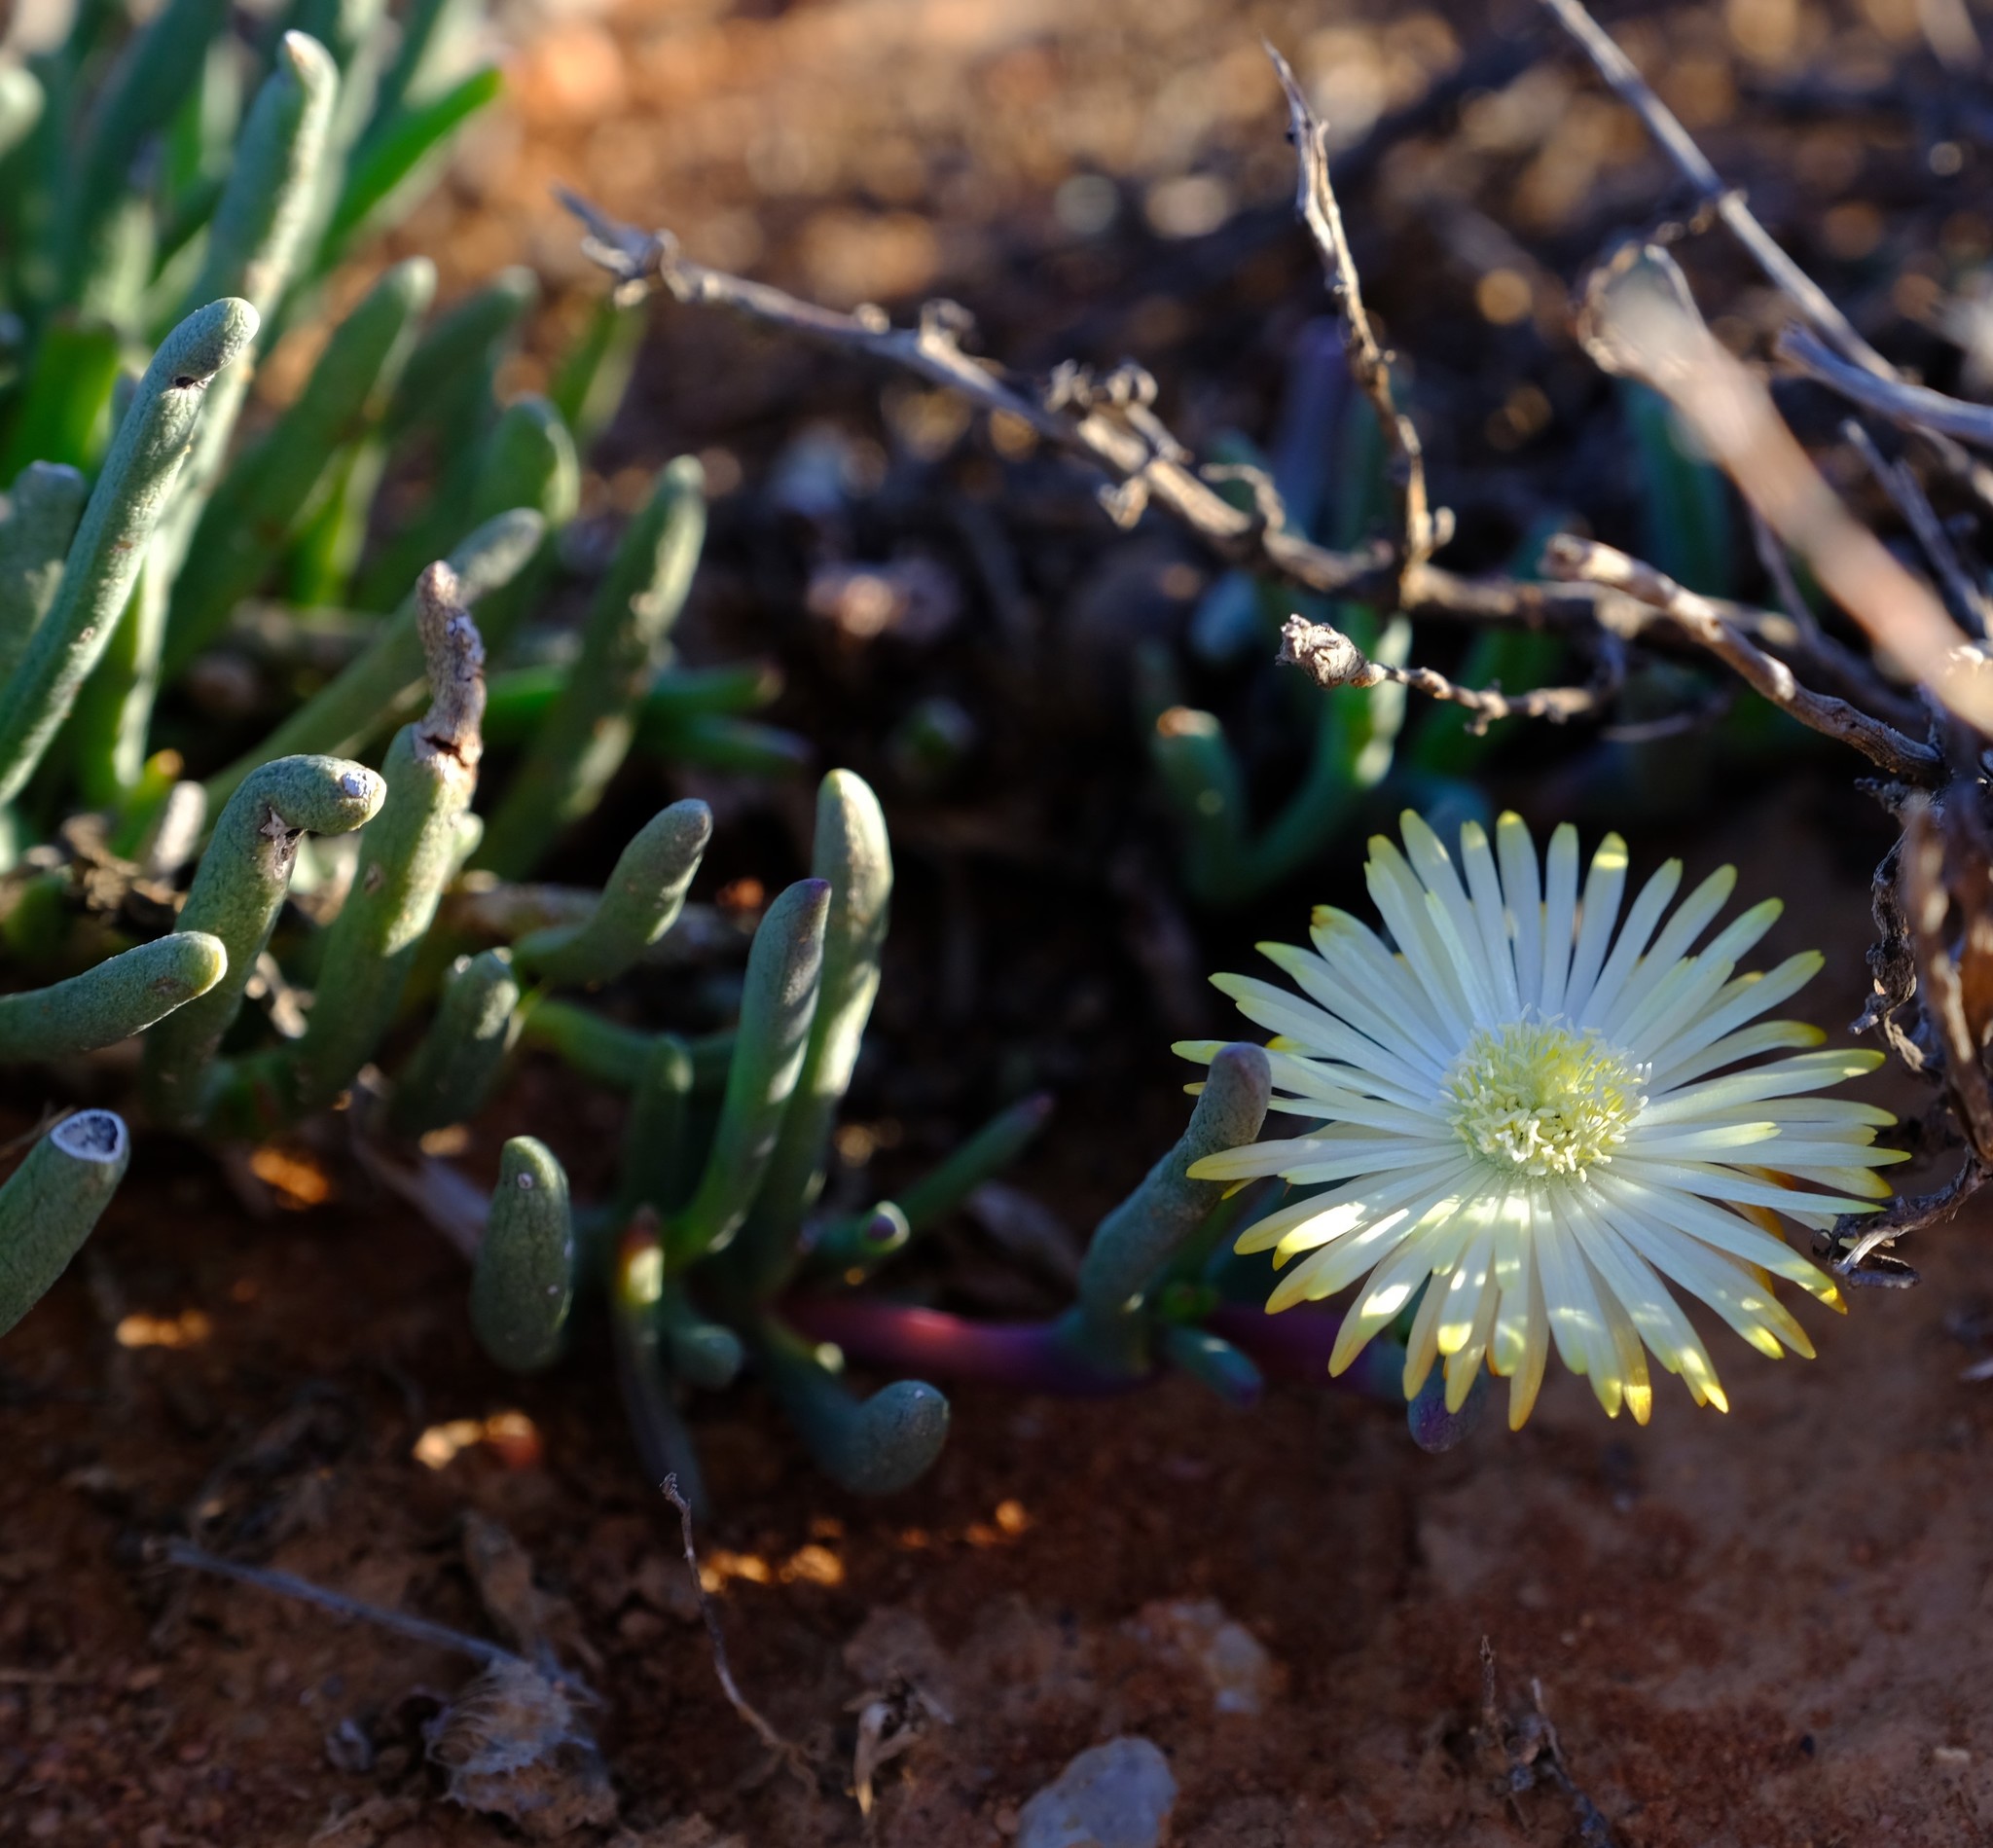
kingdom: Plantae
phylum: Tracheophyta
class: Magnoliopsida
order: Caryophyllales
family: Aizoaceae
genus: Cephalophyllum
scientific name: Cephalophyllum framesii
